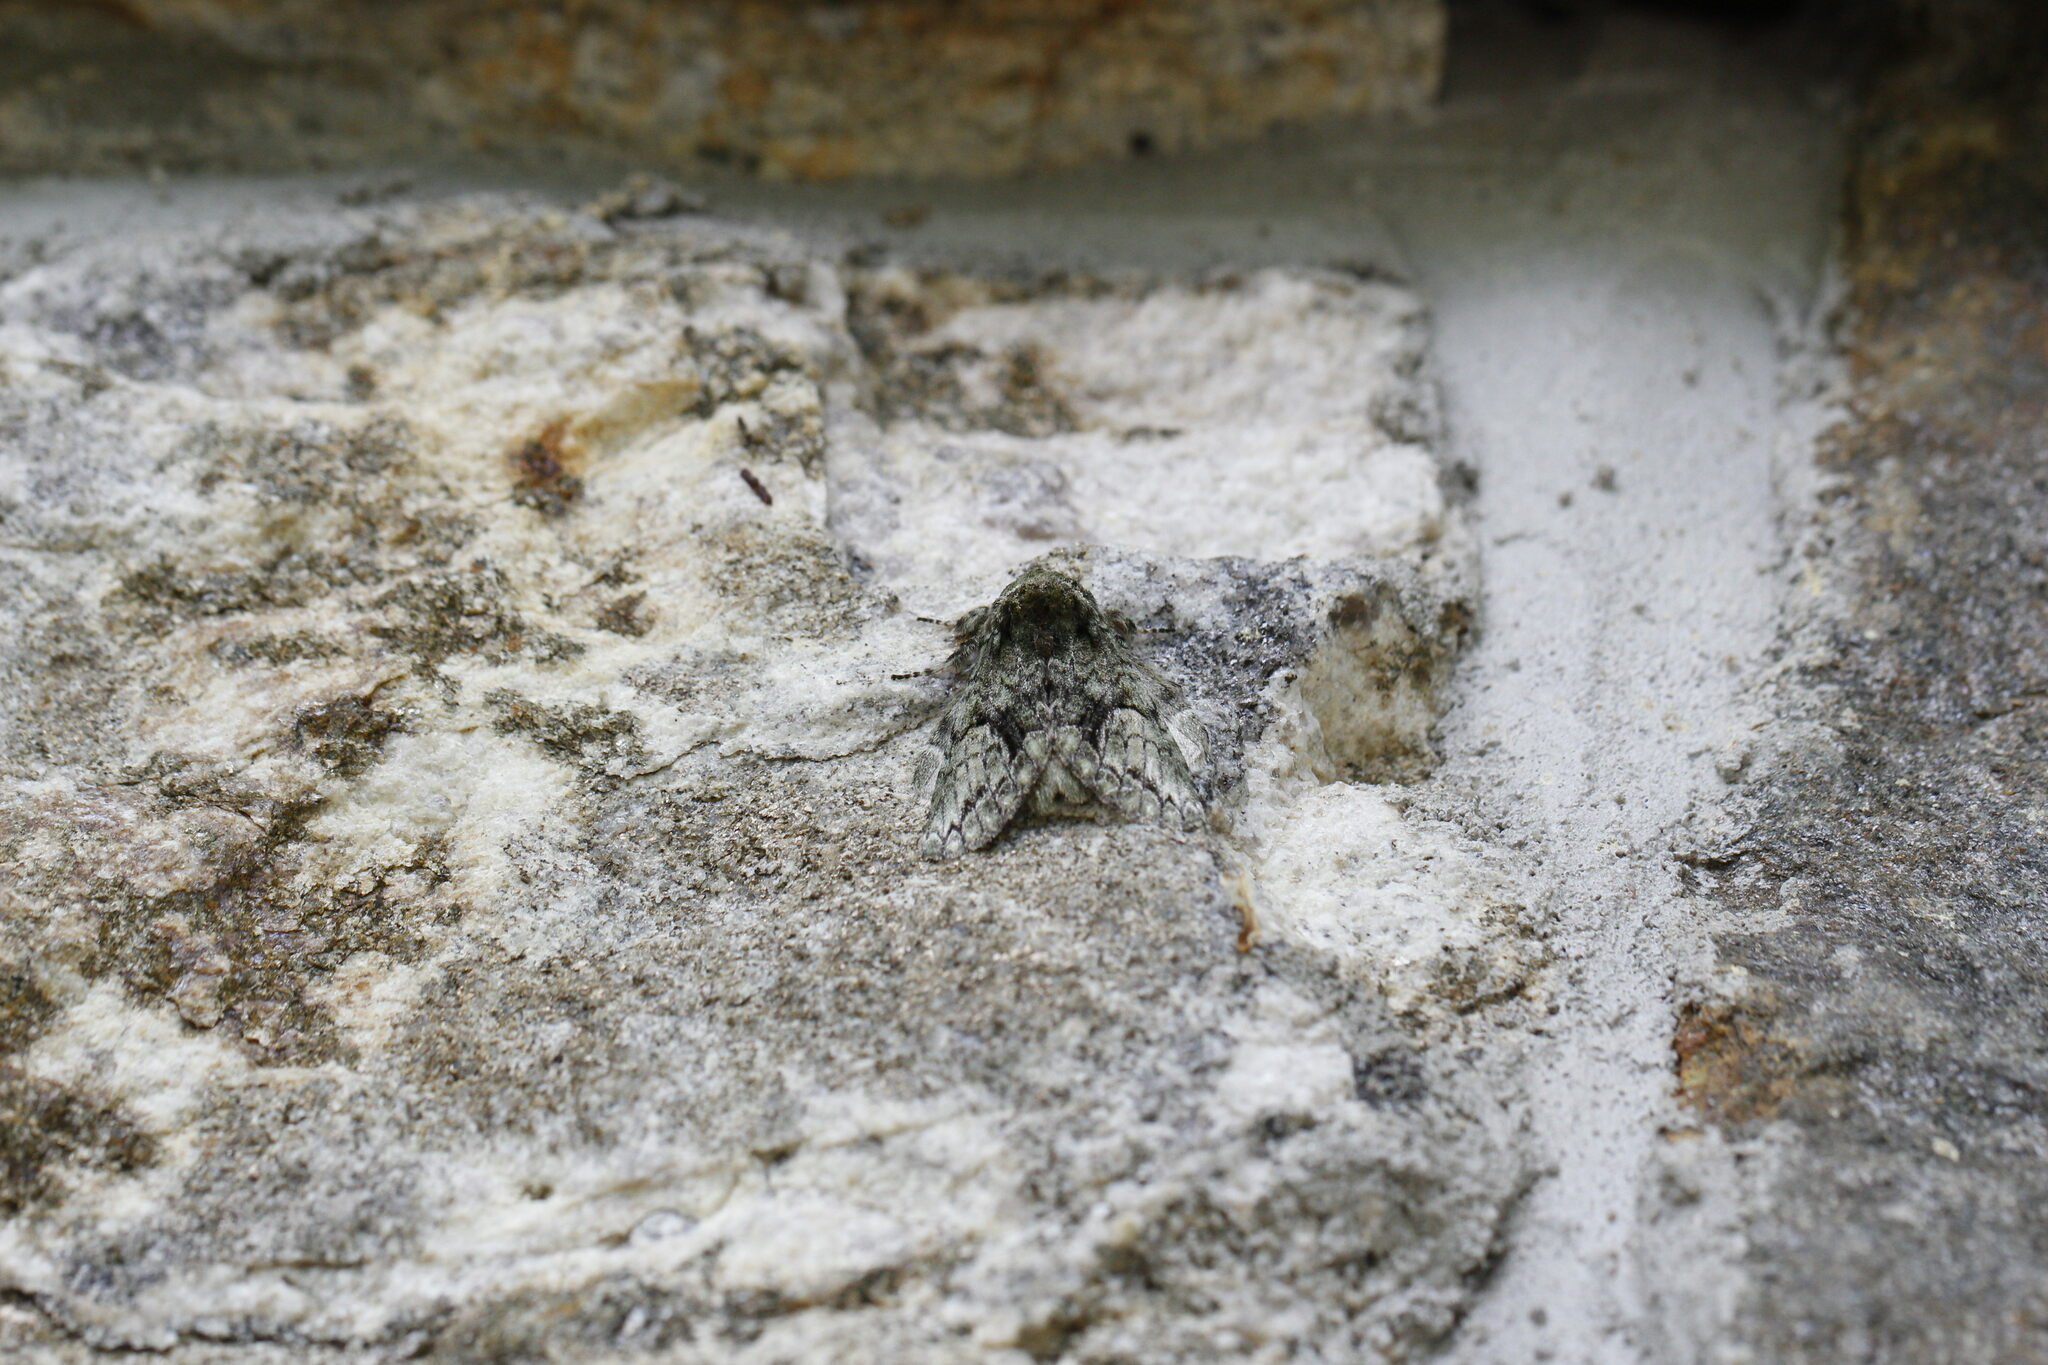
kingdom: Animalia
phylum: Arthropoda
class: Insecta
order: Lepidoptera
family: Notodontidae
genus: Heterocampa
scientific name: Heterocampa
